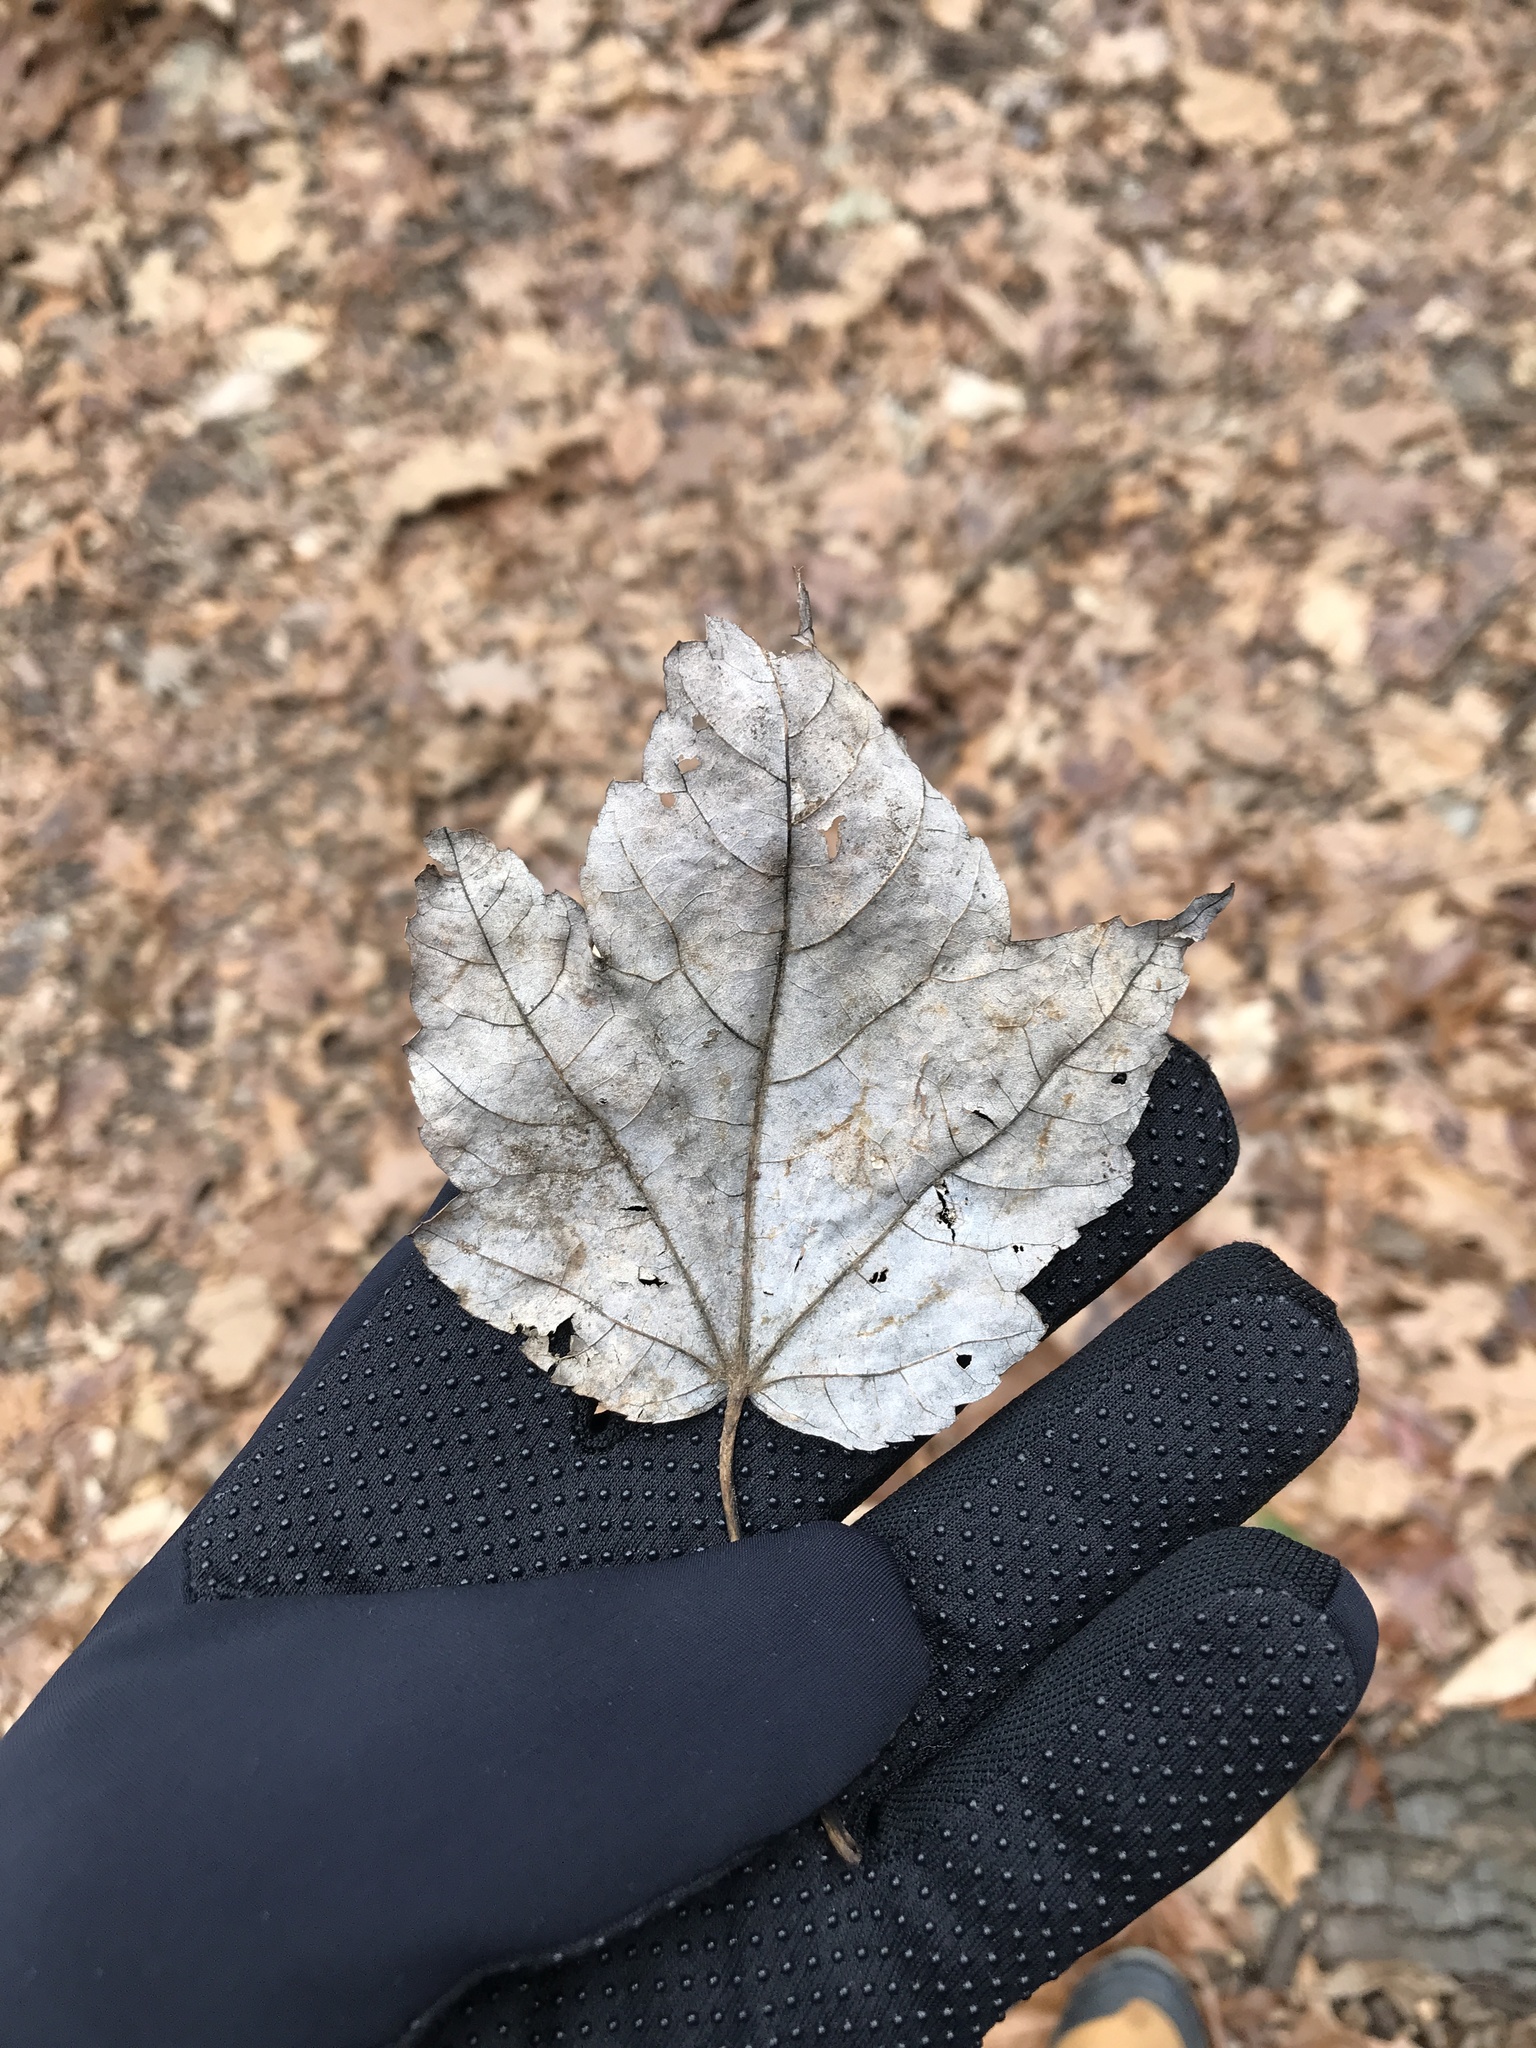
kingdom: Plantae
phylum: Tracheophyta
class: Magnoliopsida
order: Sapindales
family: Sapindaceae
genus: Acer
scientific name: Acer rubrum
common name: Red maple
